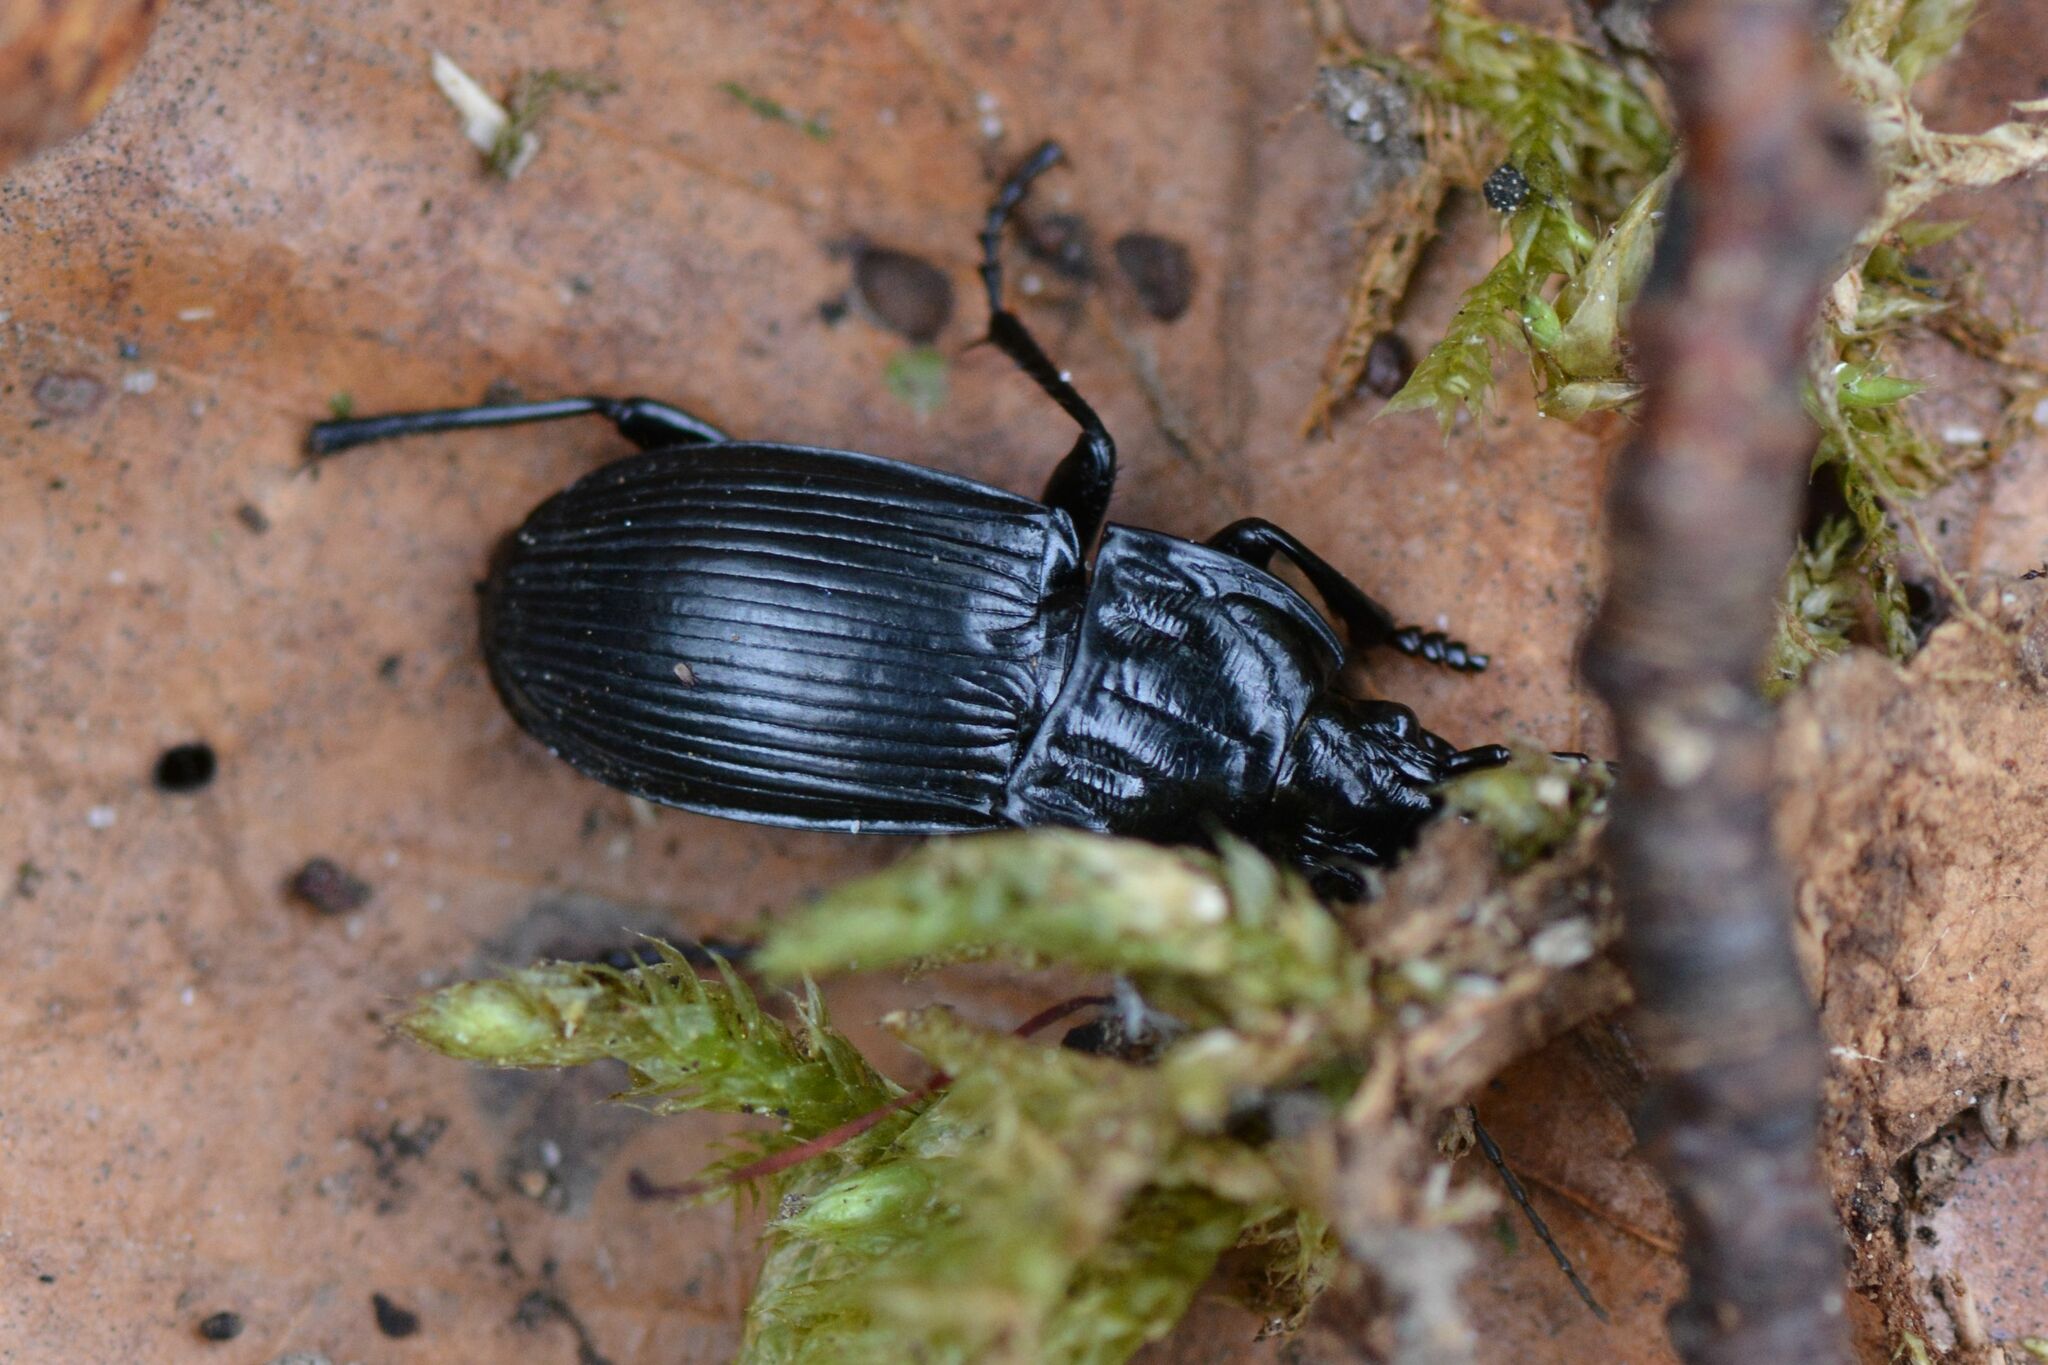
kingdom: Animalia
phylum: Arthropoda
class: Insecta
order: Coleoptera
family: Carabidae
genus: Abax
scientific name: Abax parallelepipedus
